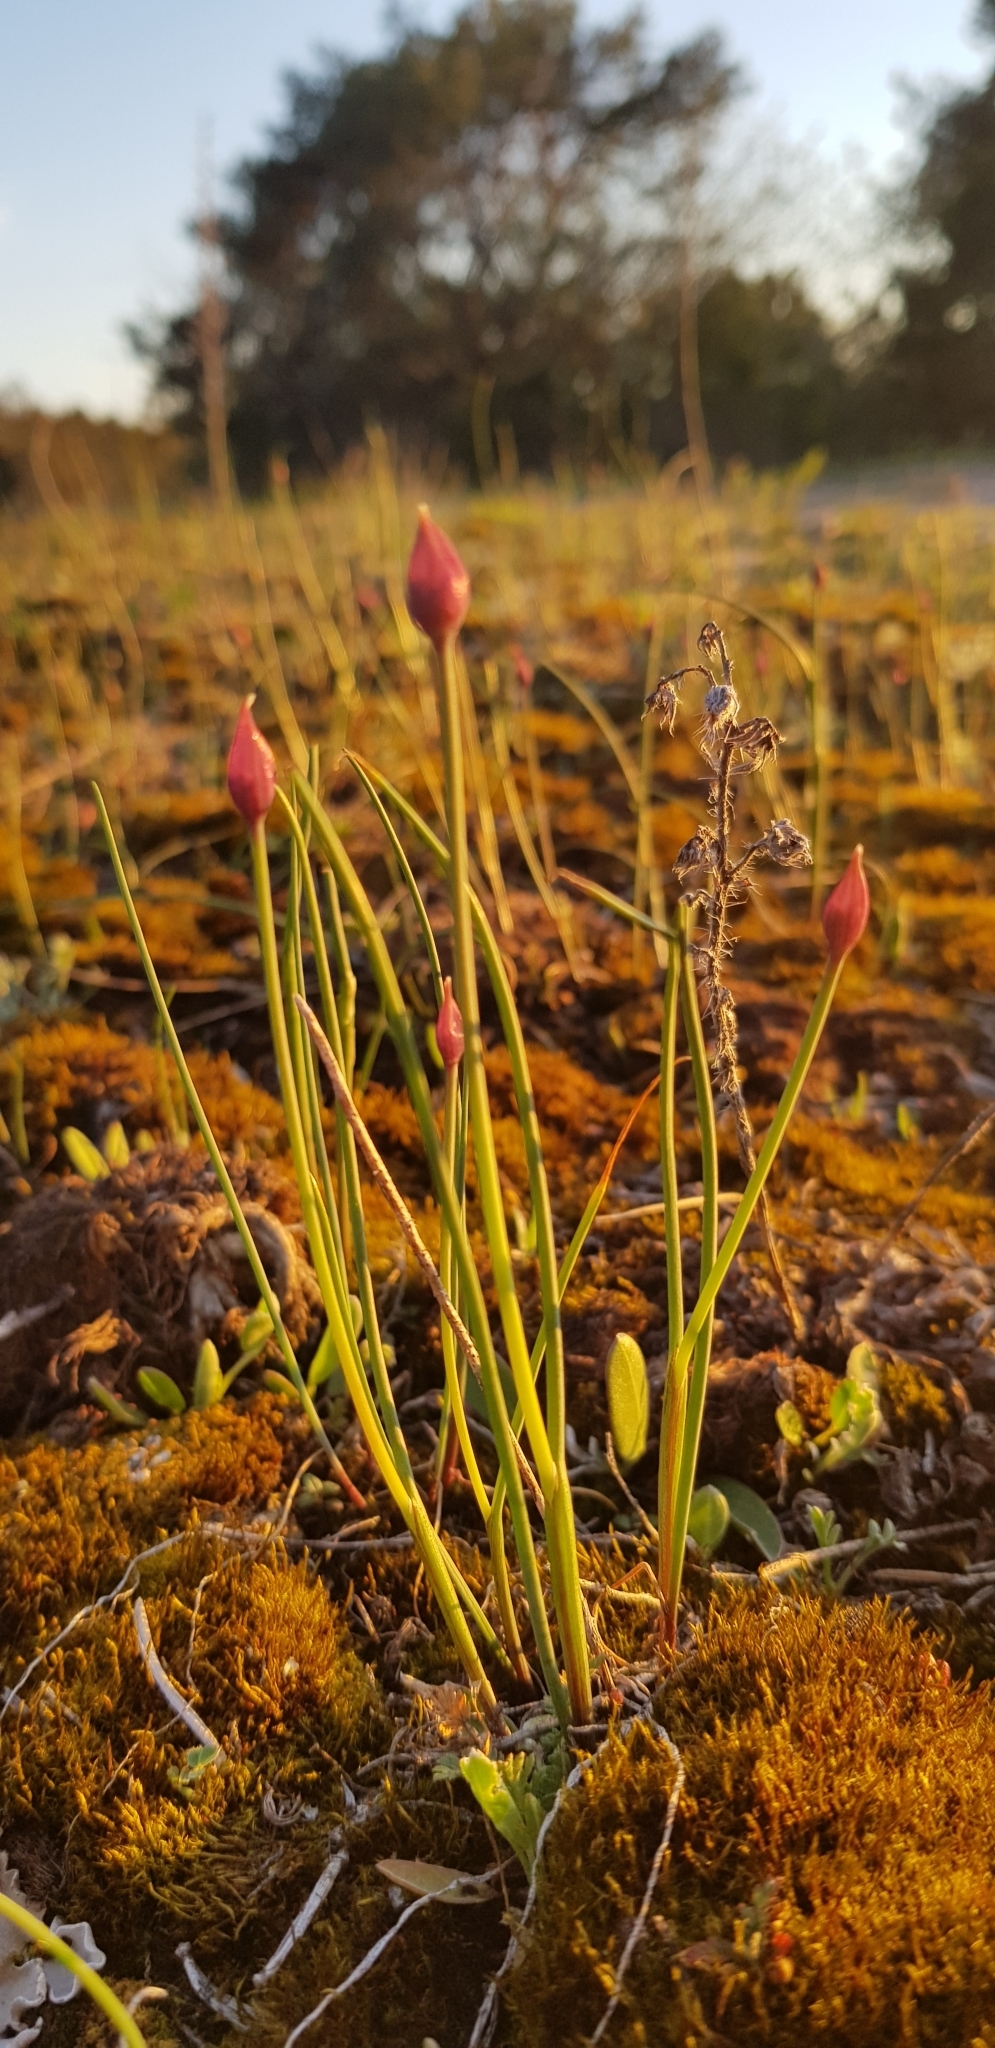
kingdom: Plantae
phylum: Tracheophyta
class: Liliopsida
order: Asparagales
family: Amaryllidaceae
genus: Allium
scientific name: Allium schoenoprasum
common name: Chives
